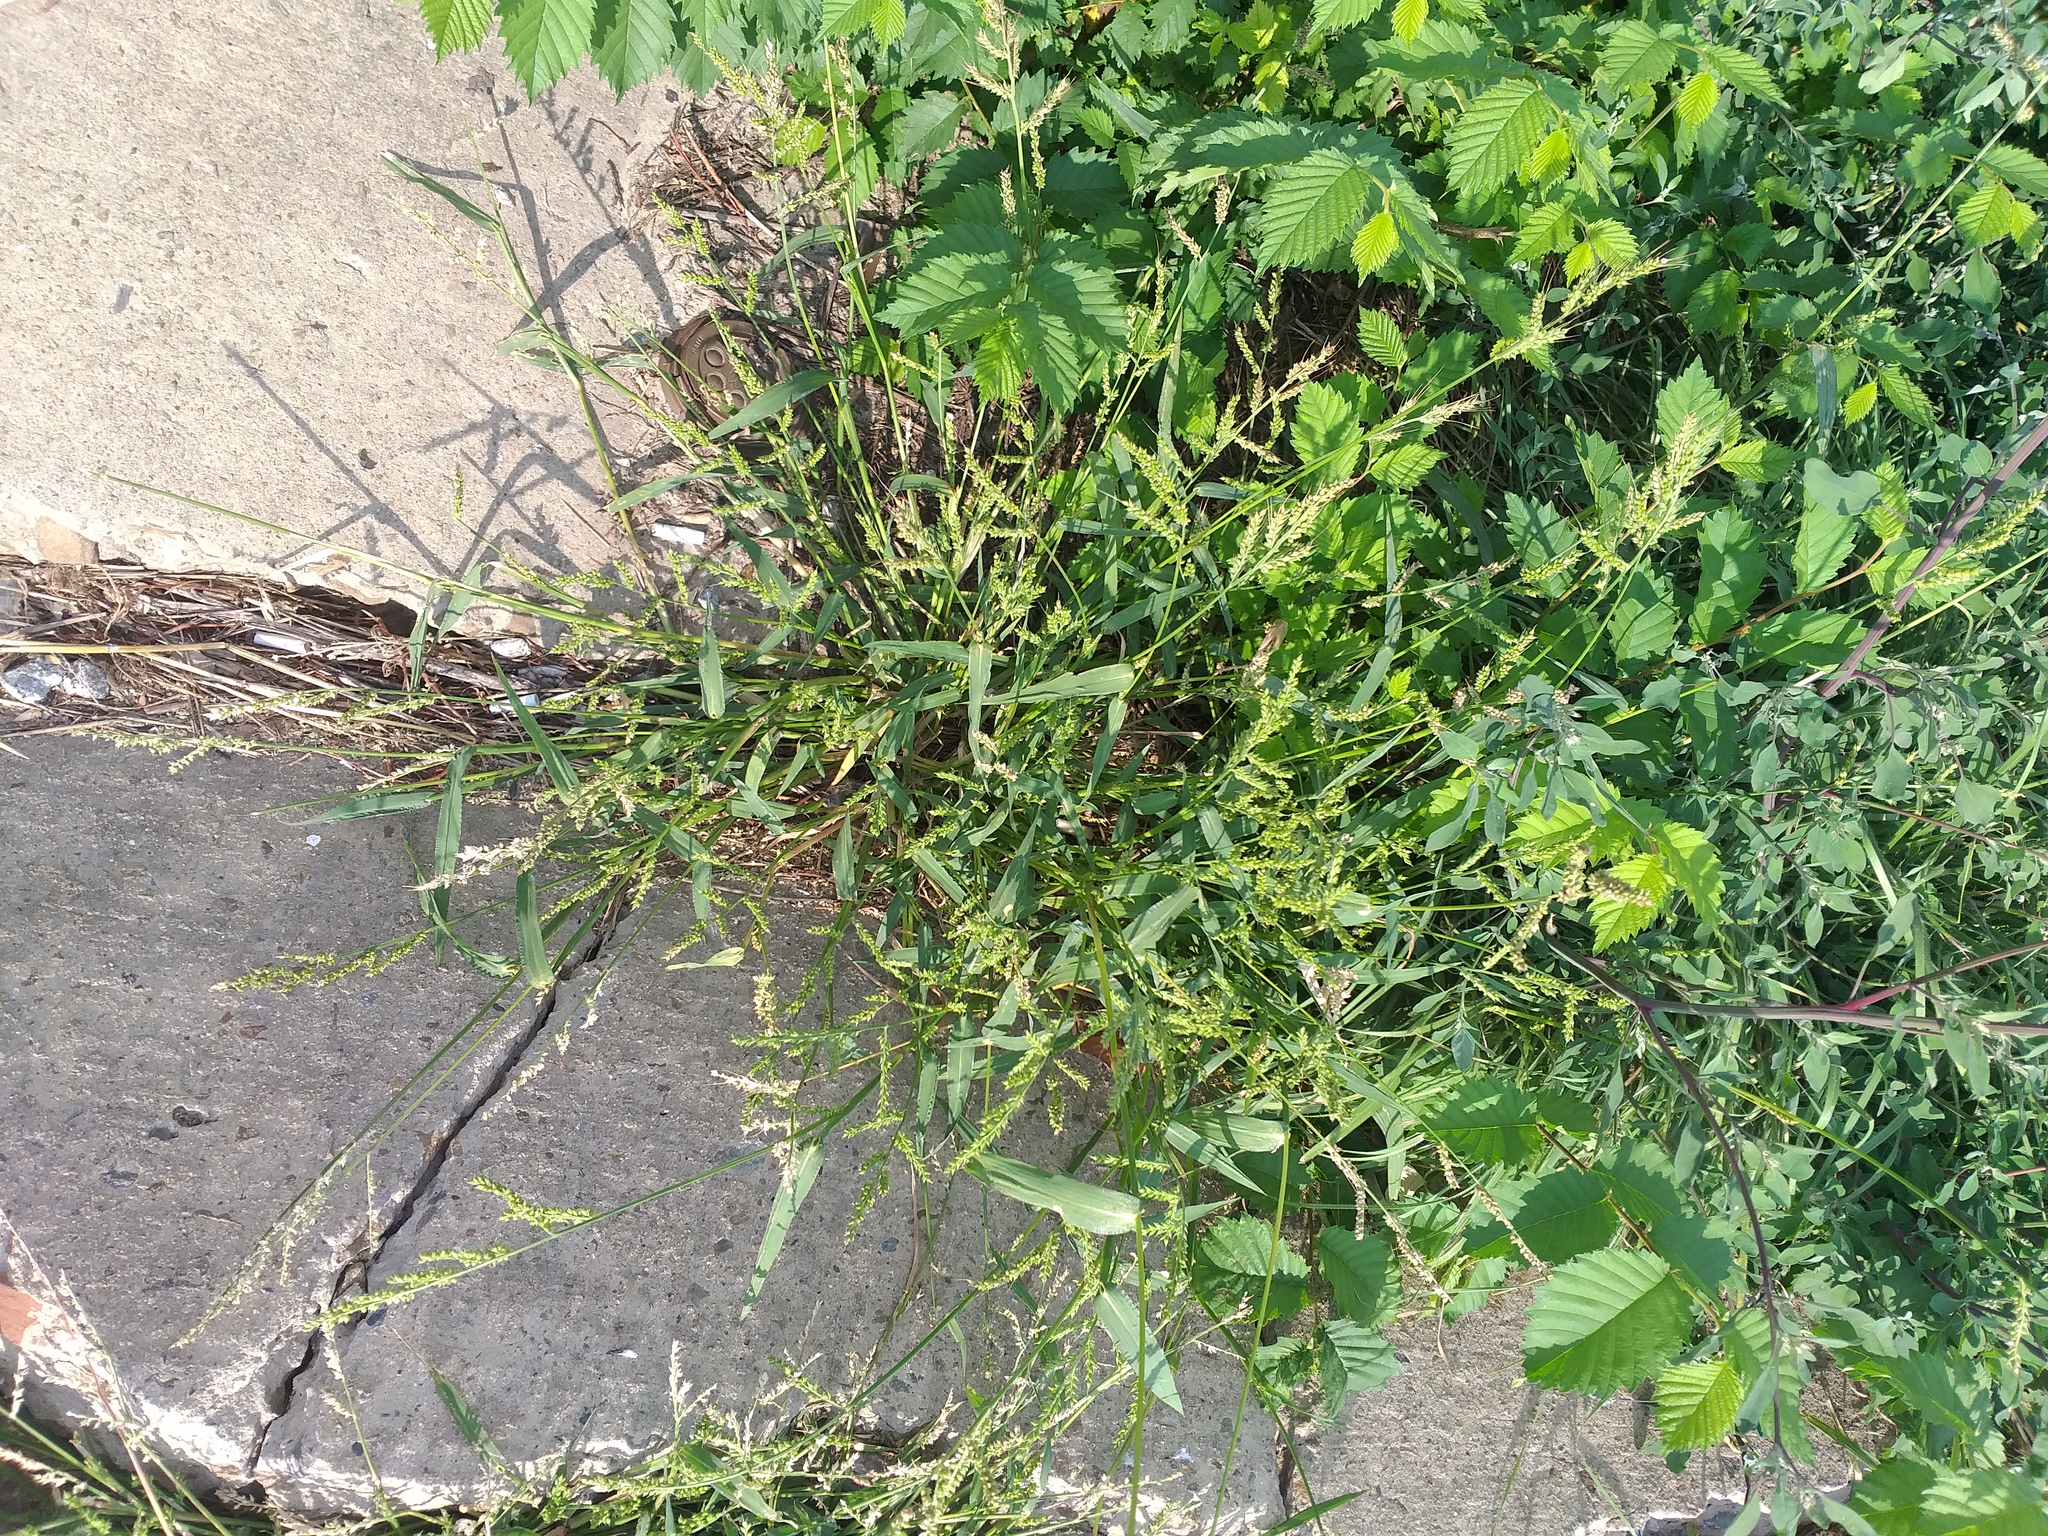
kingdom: Plantae
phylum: Tracheophyta
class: Liliopsida
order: Poales
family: Poaceae
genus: Echinochloa
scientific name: Echinochloa crus-galli
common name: Cockspur
